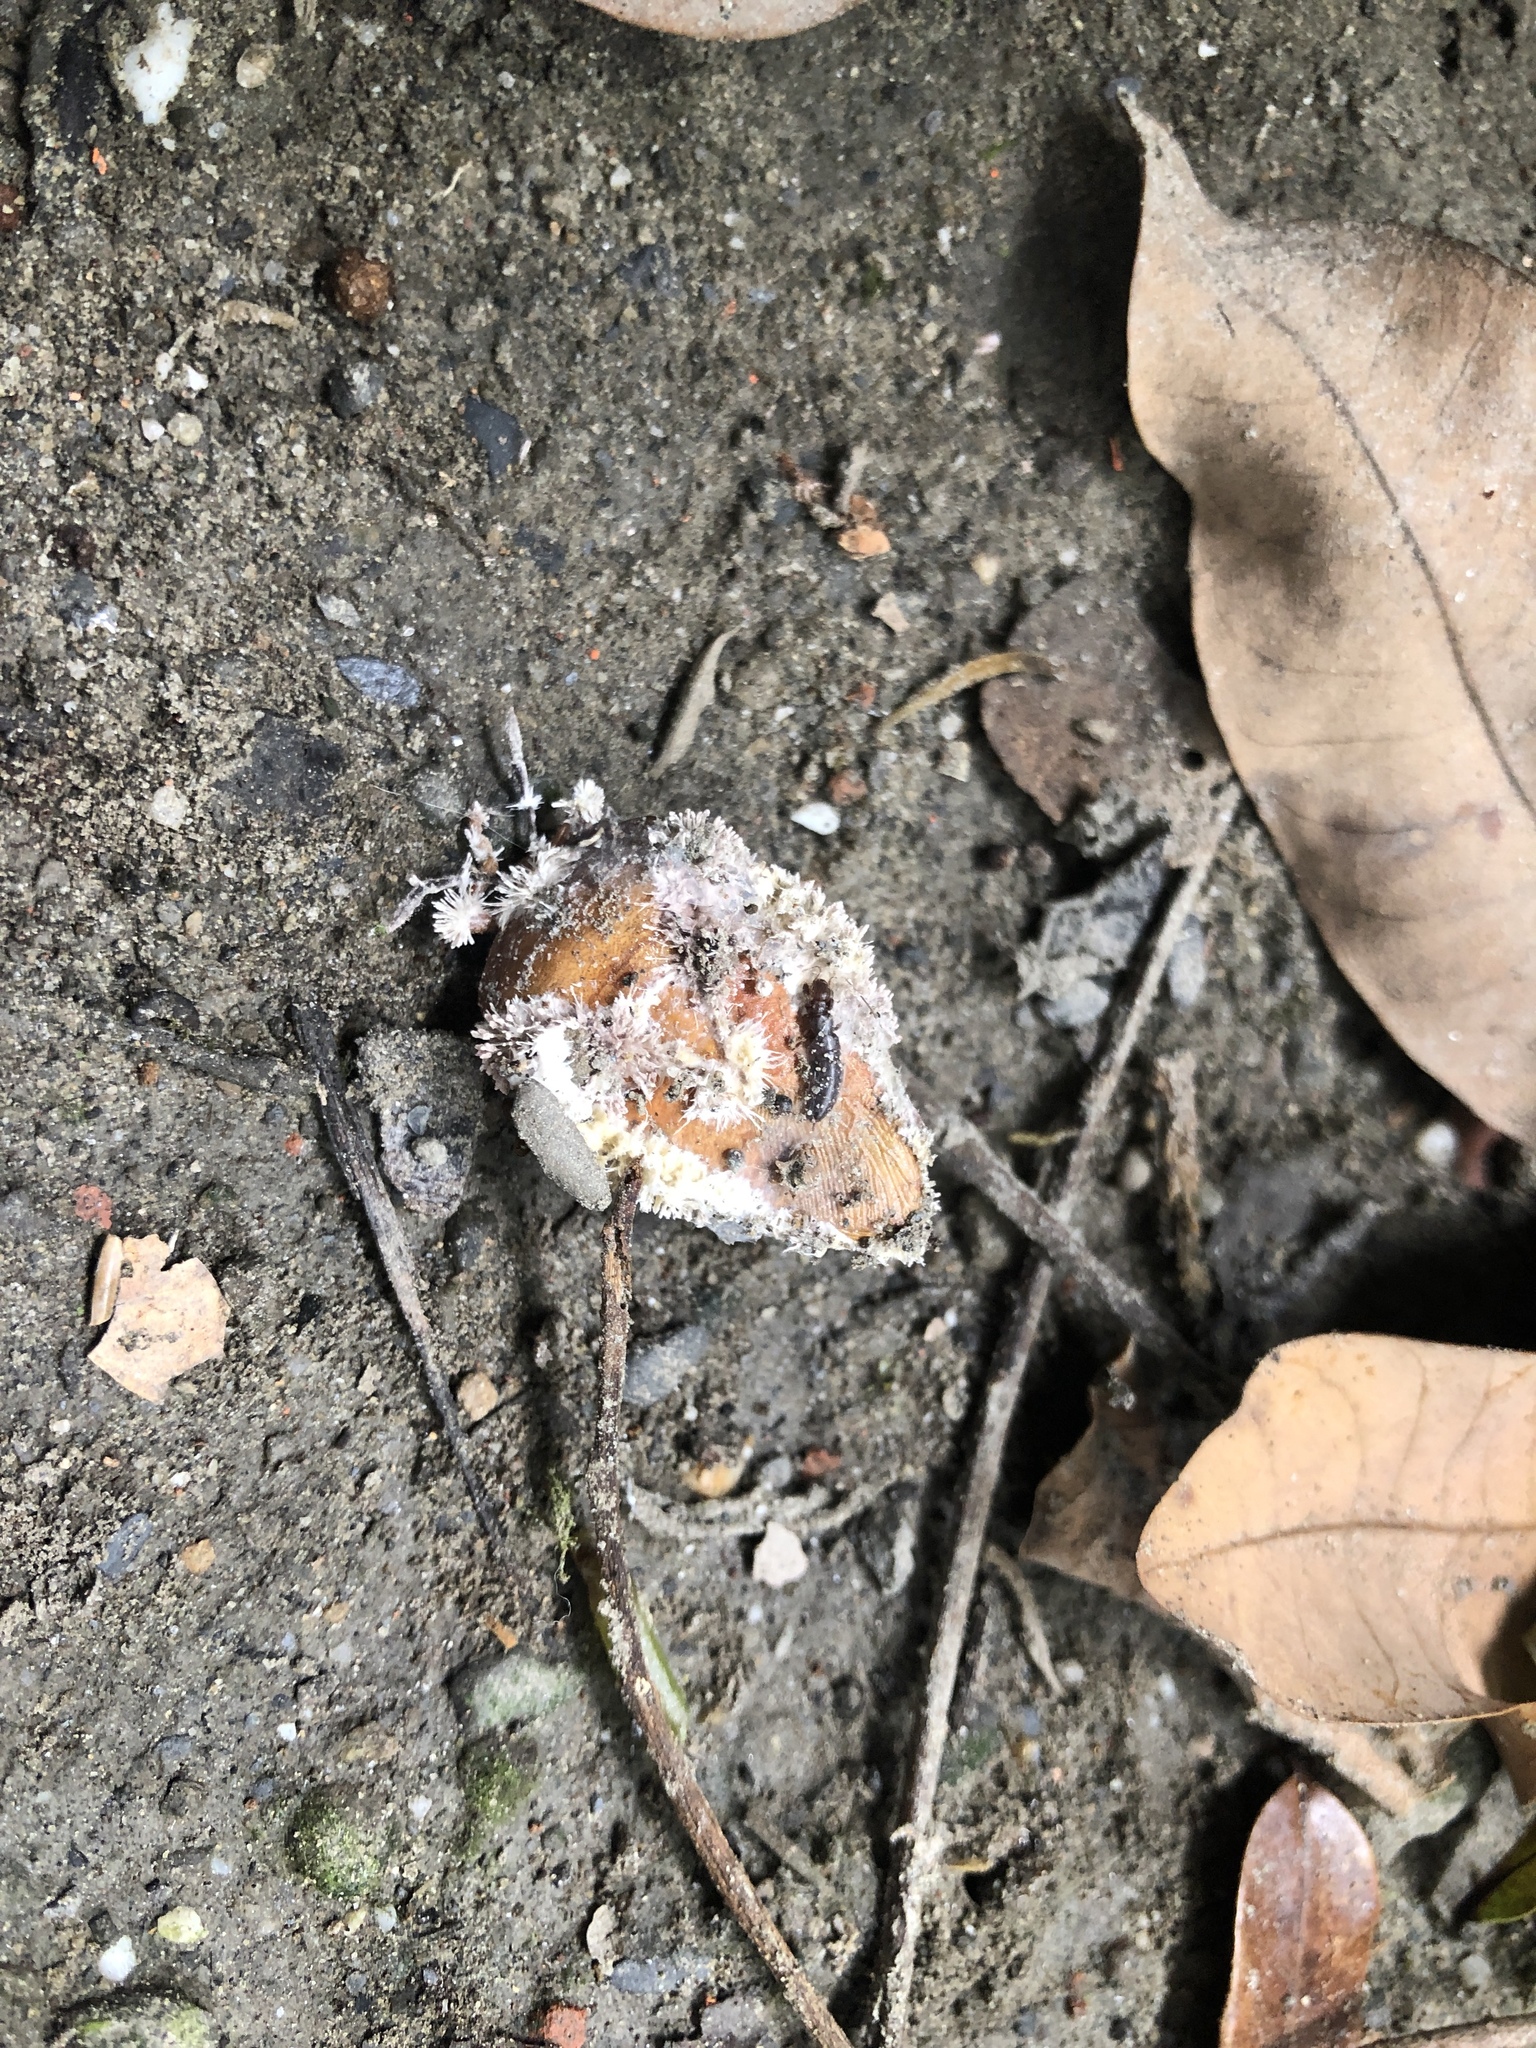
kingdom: Animalia
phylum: Arthropoda
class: Insecta
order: Hemiptera
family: Tessaratomidae
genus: Tessaratoma
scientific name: Tessaratoma papillosa
